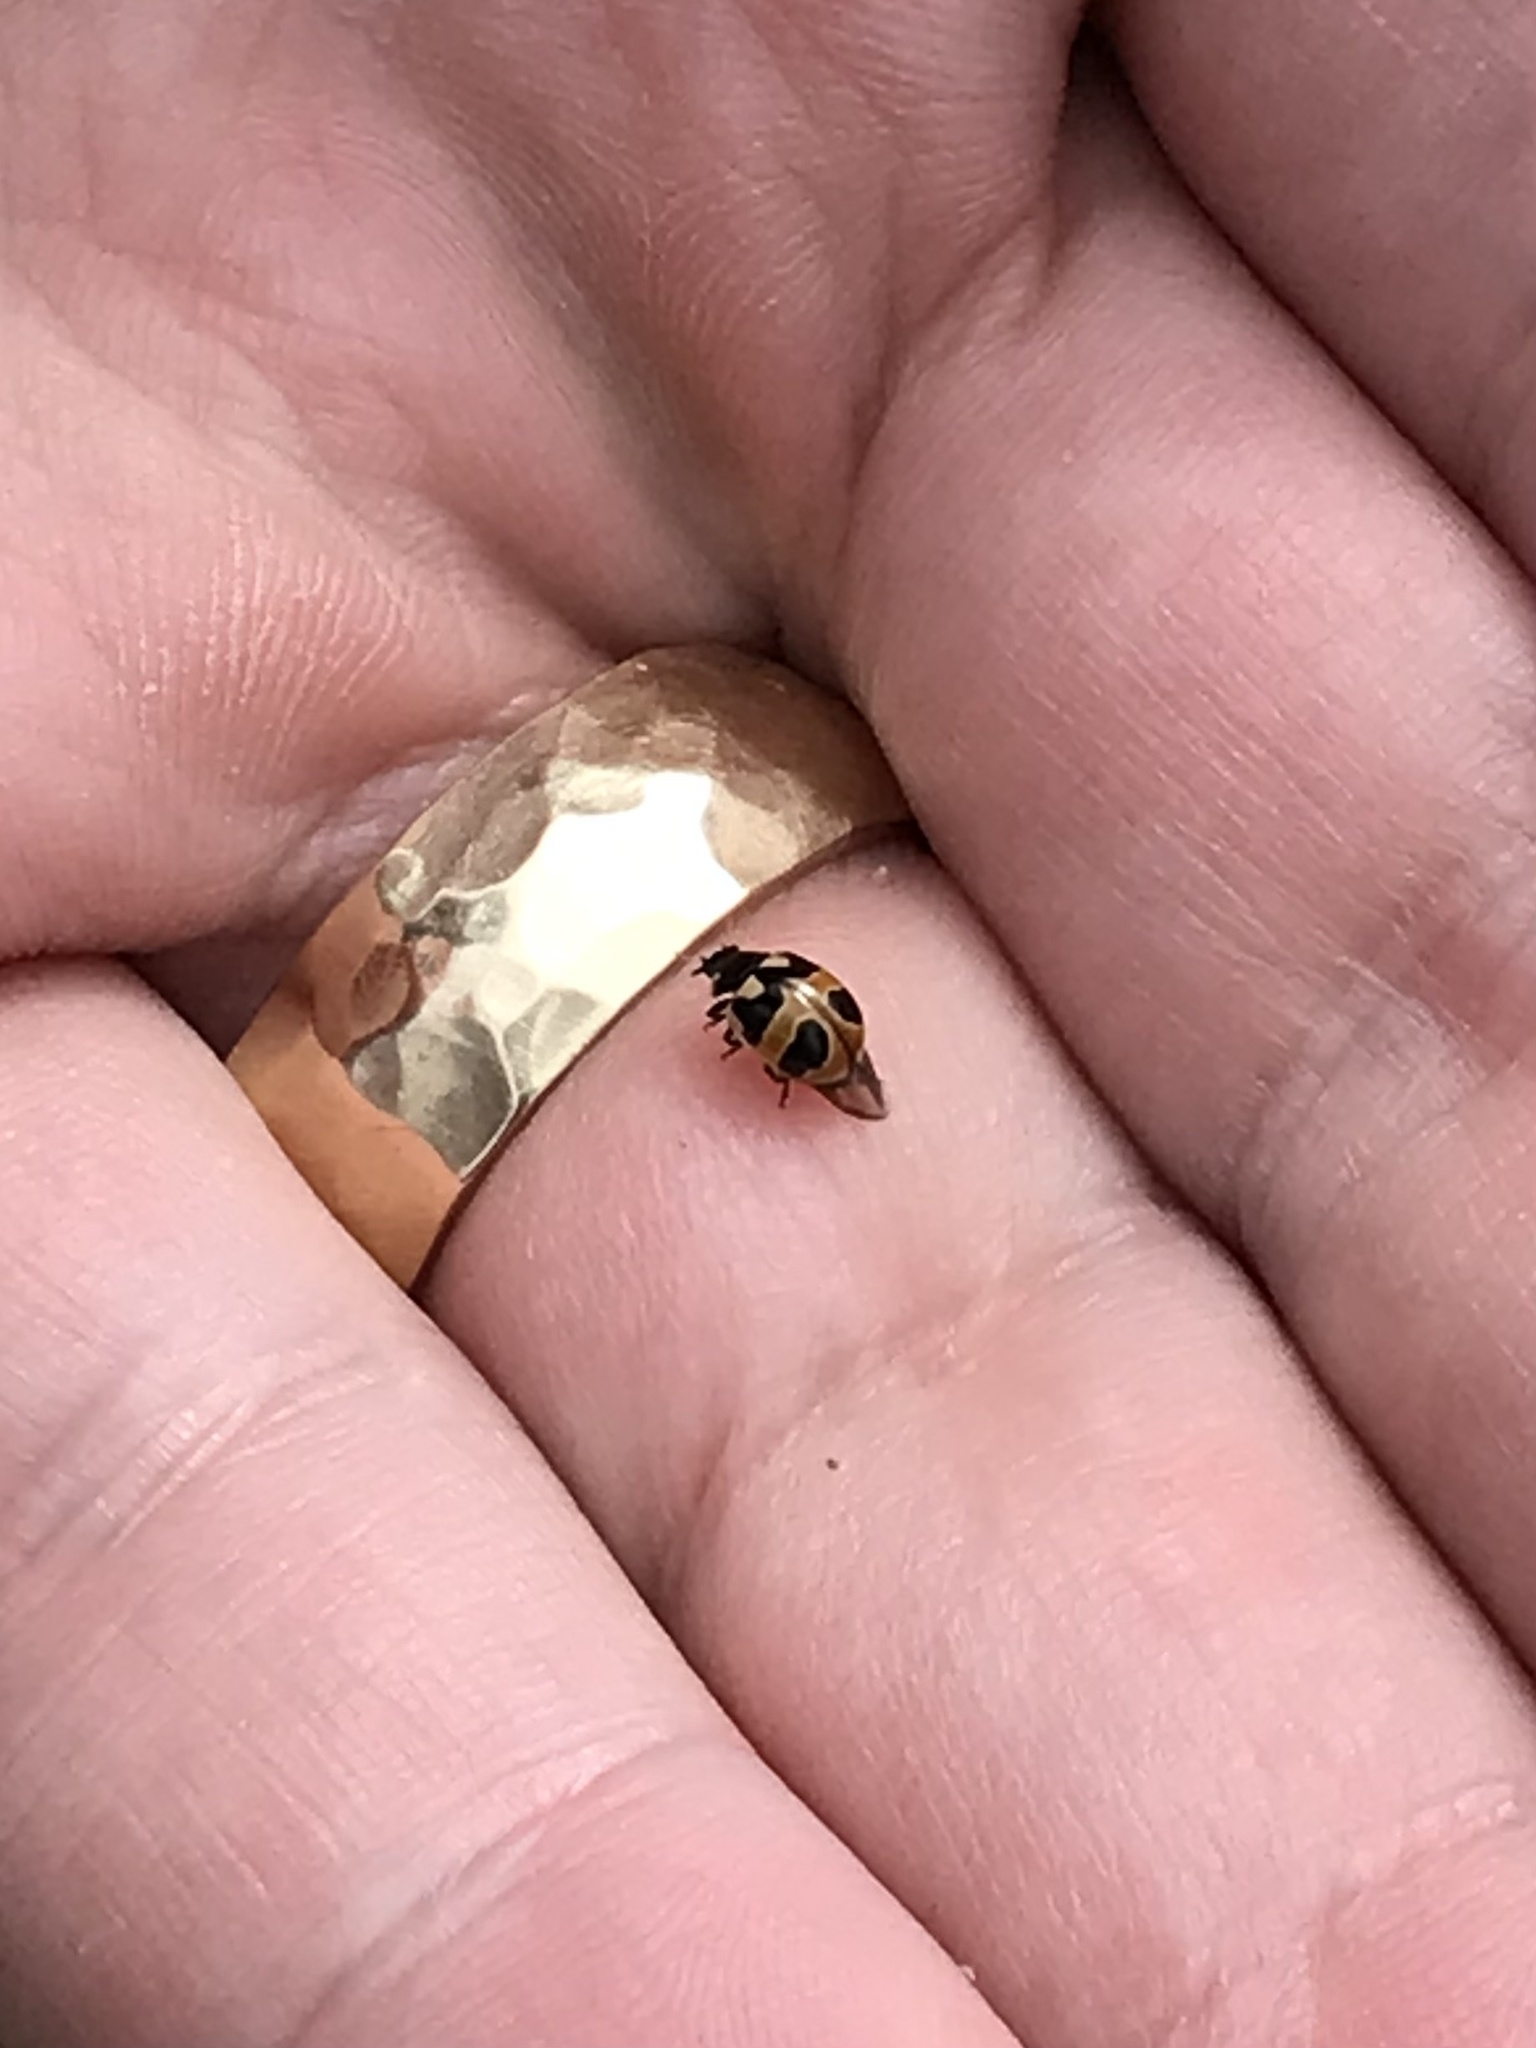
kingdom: Animalia
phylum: Arthropoda
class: Insecta
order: Coleoptera
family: Coccinellidae
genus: Coccinella
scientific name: Coccinella hieroglyphica
